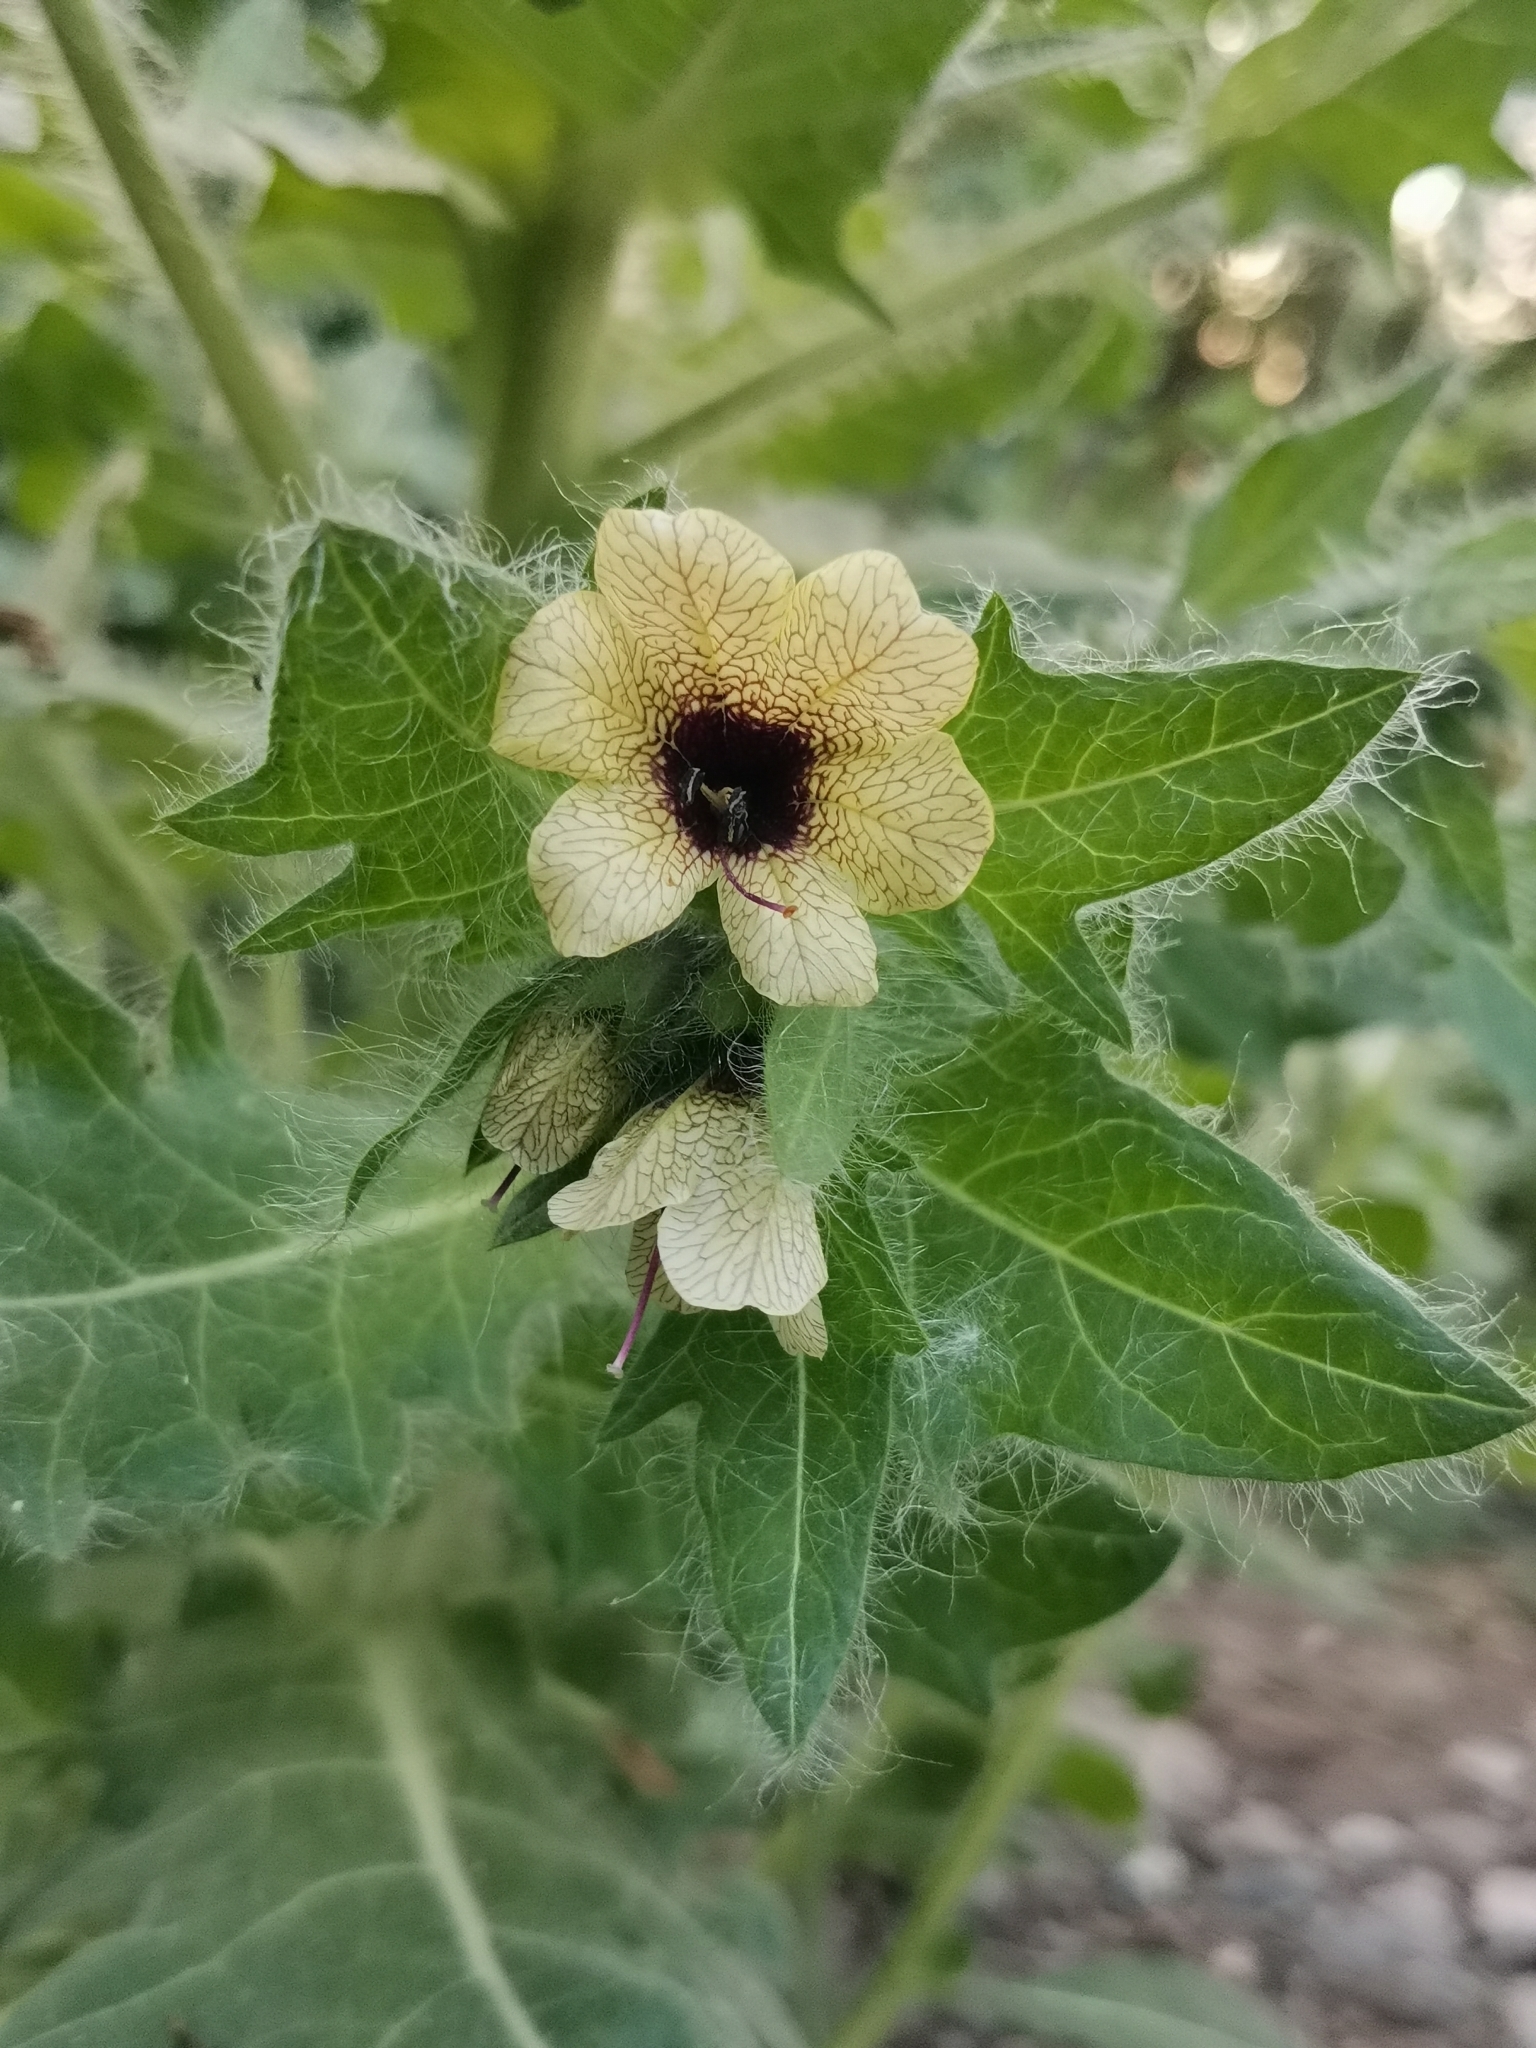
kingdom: Plantae
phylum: Tracheophyta
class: Magnoliopsida
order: Solanales
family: Solanaceae
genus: Hyoscyamus
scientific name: Hyoscyamus niger
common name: Henbane
